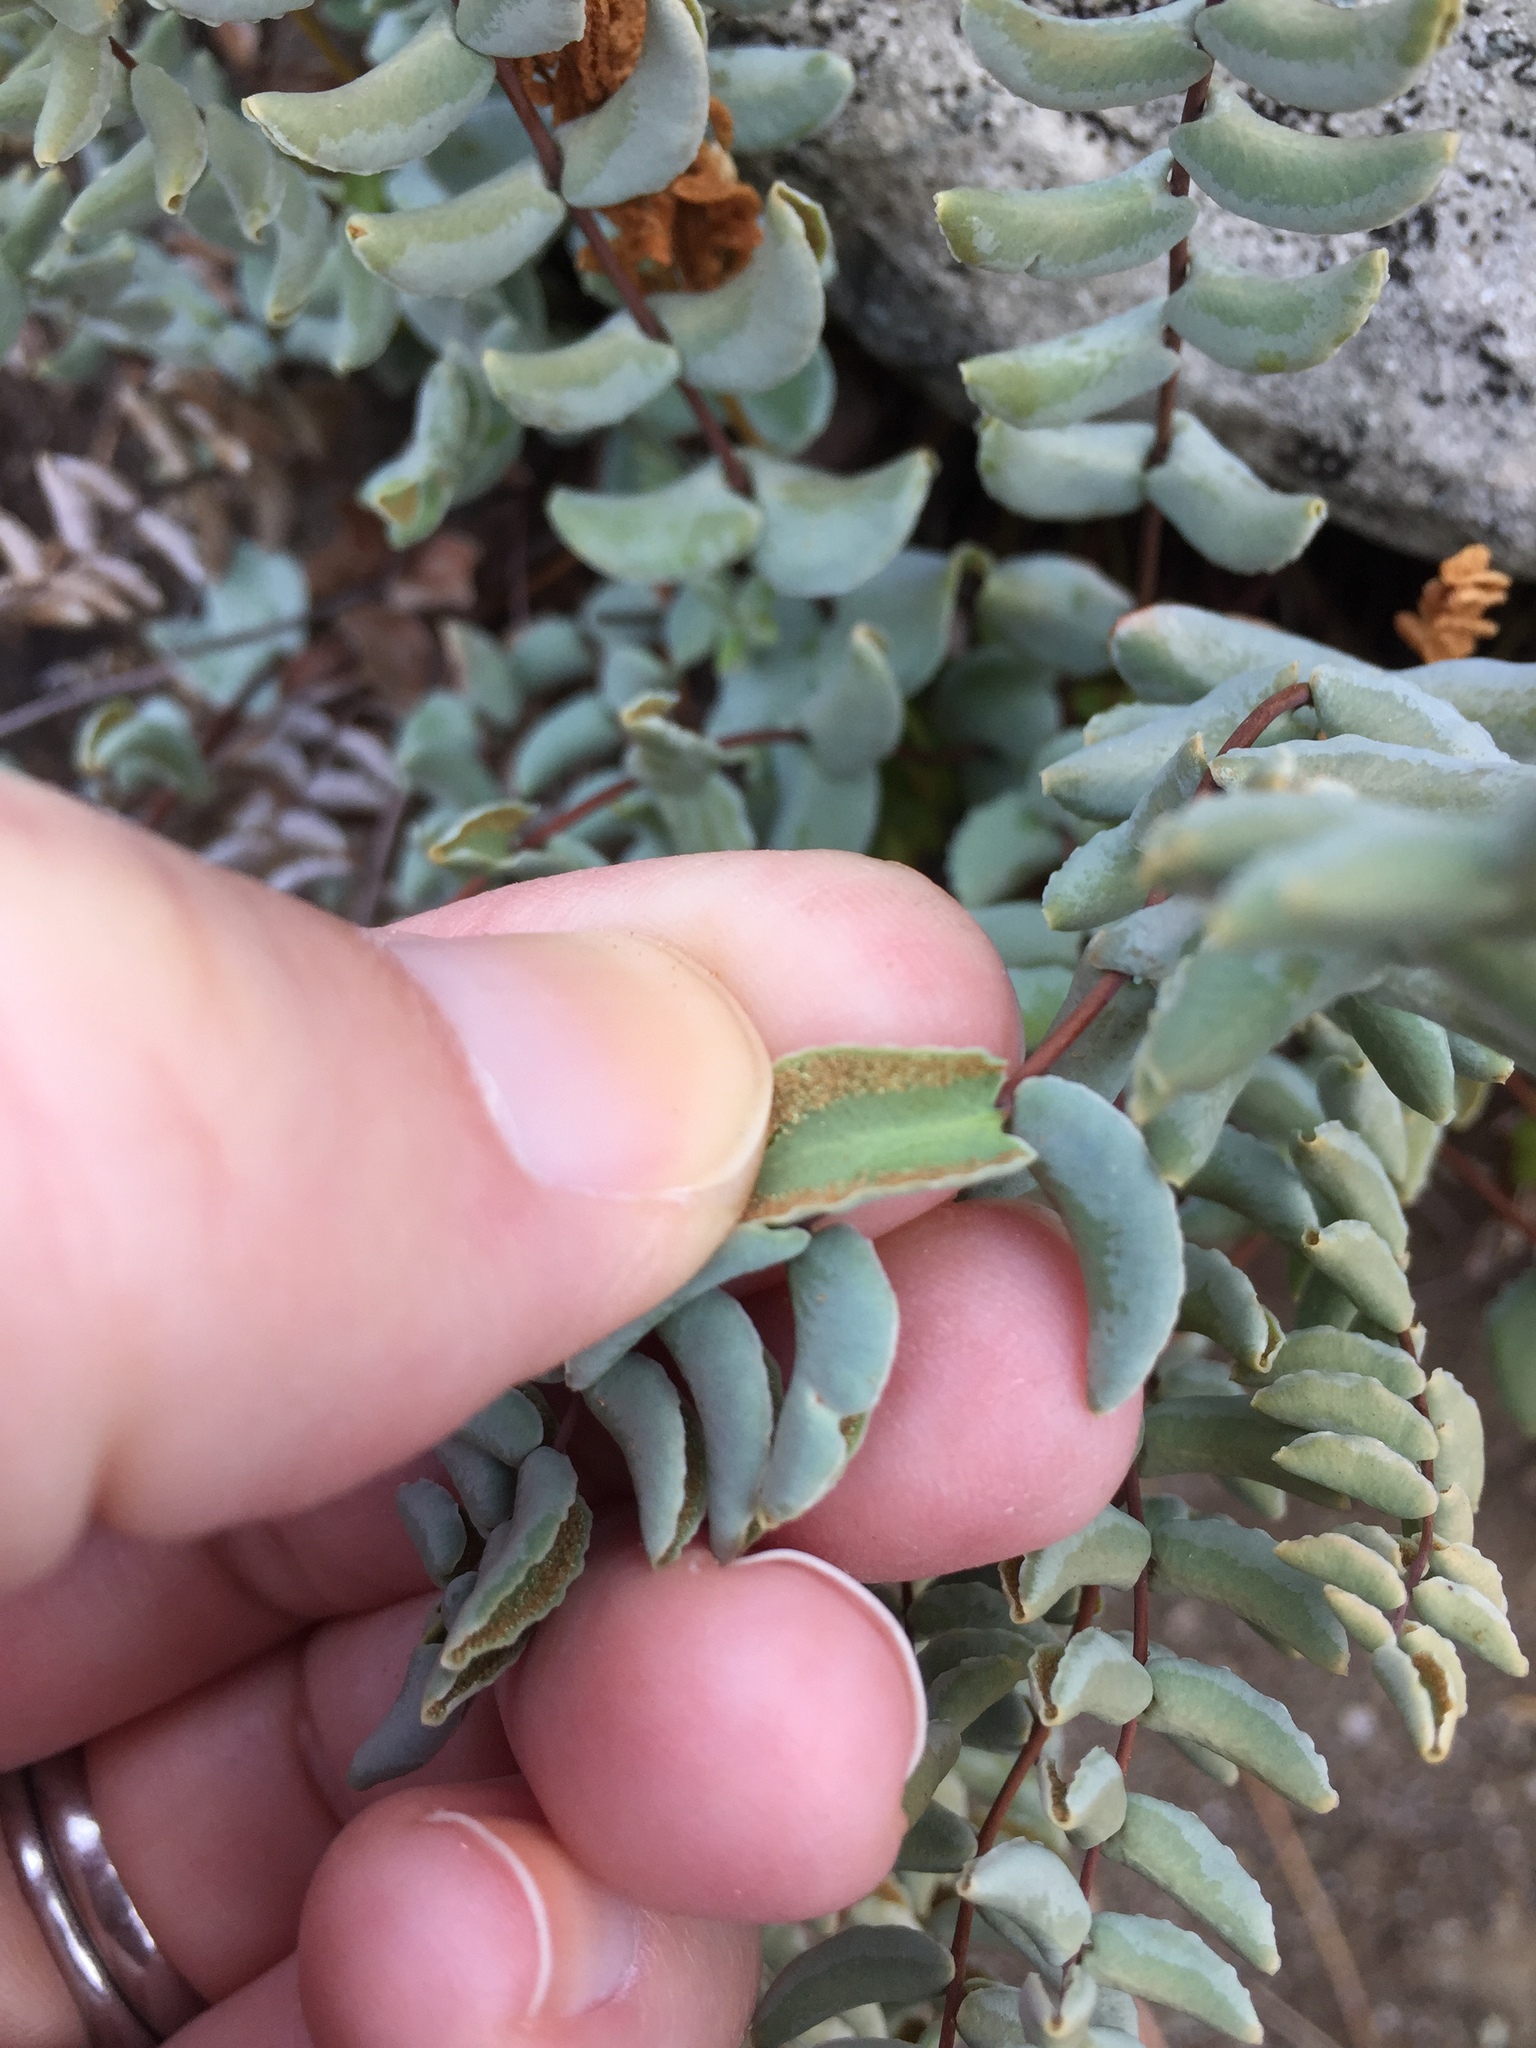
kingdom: Plantae
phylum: Tracheophyta
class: Polypodiopsida
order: Polypodiales
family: Pteridaceae
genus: Pellaea
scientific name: Pellaea bridgesii
